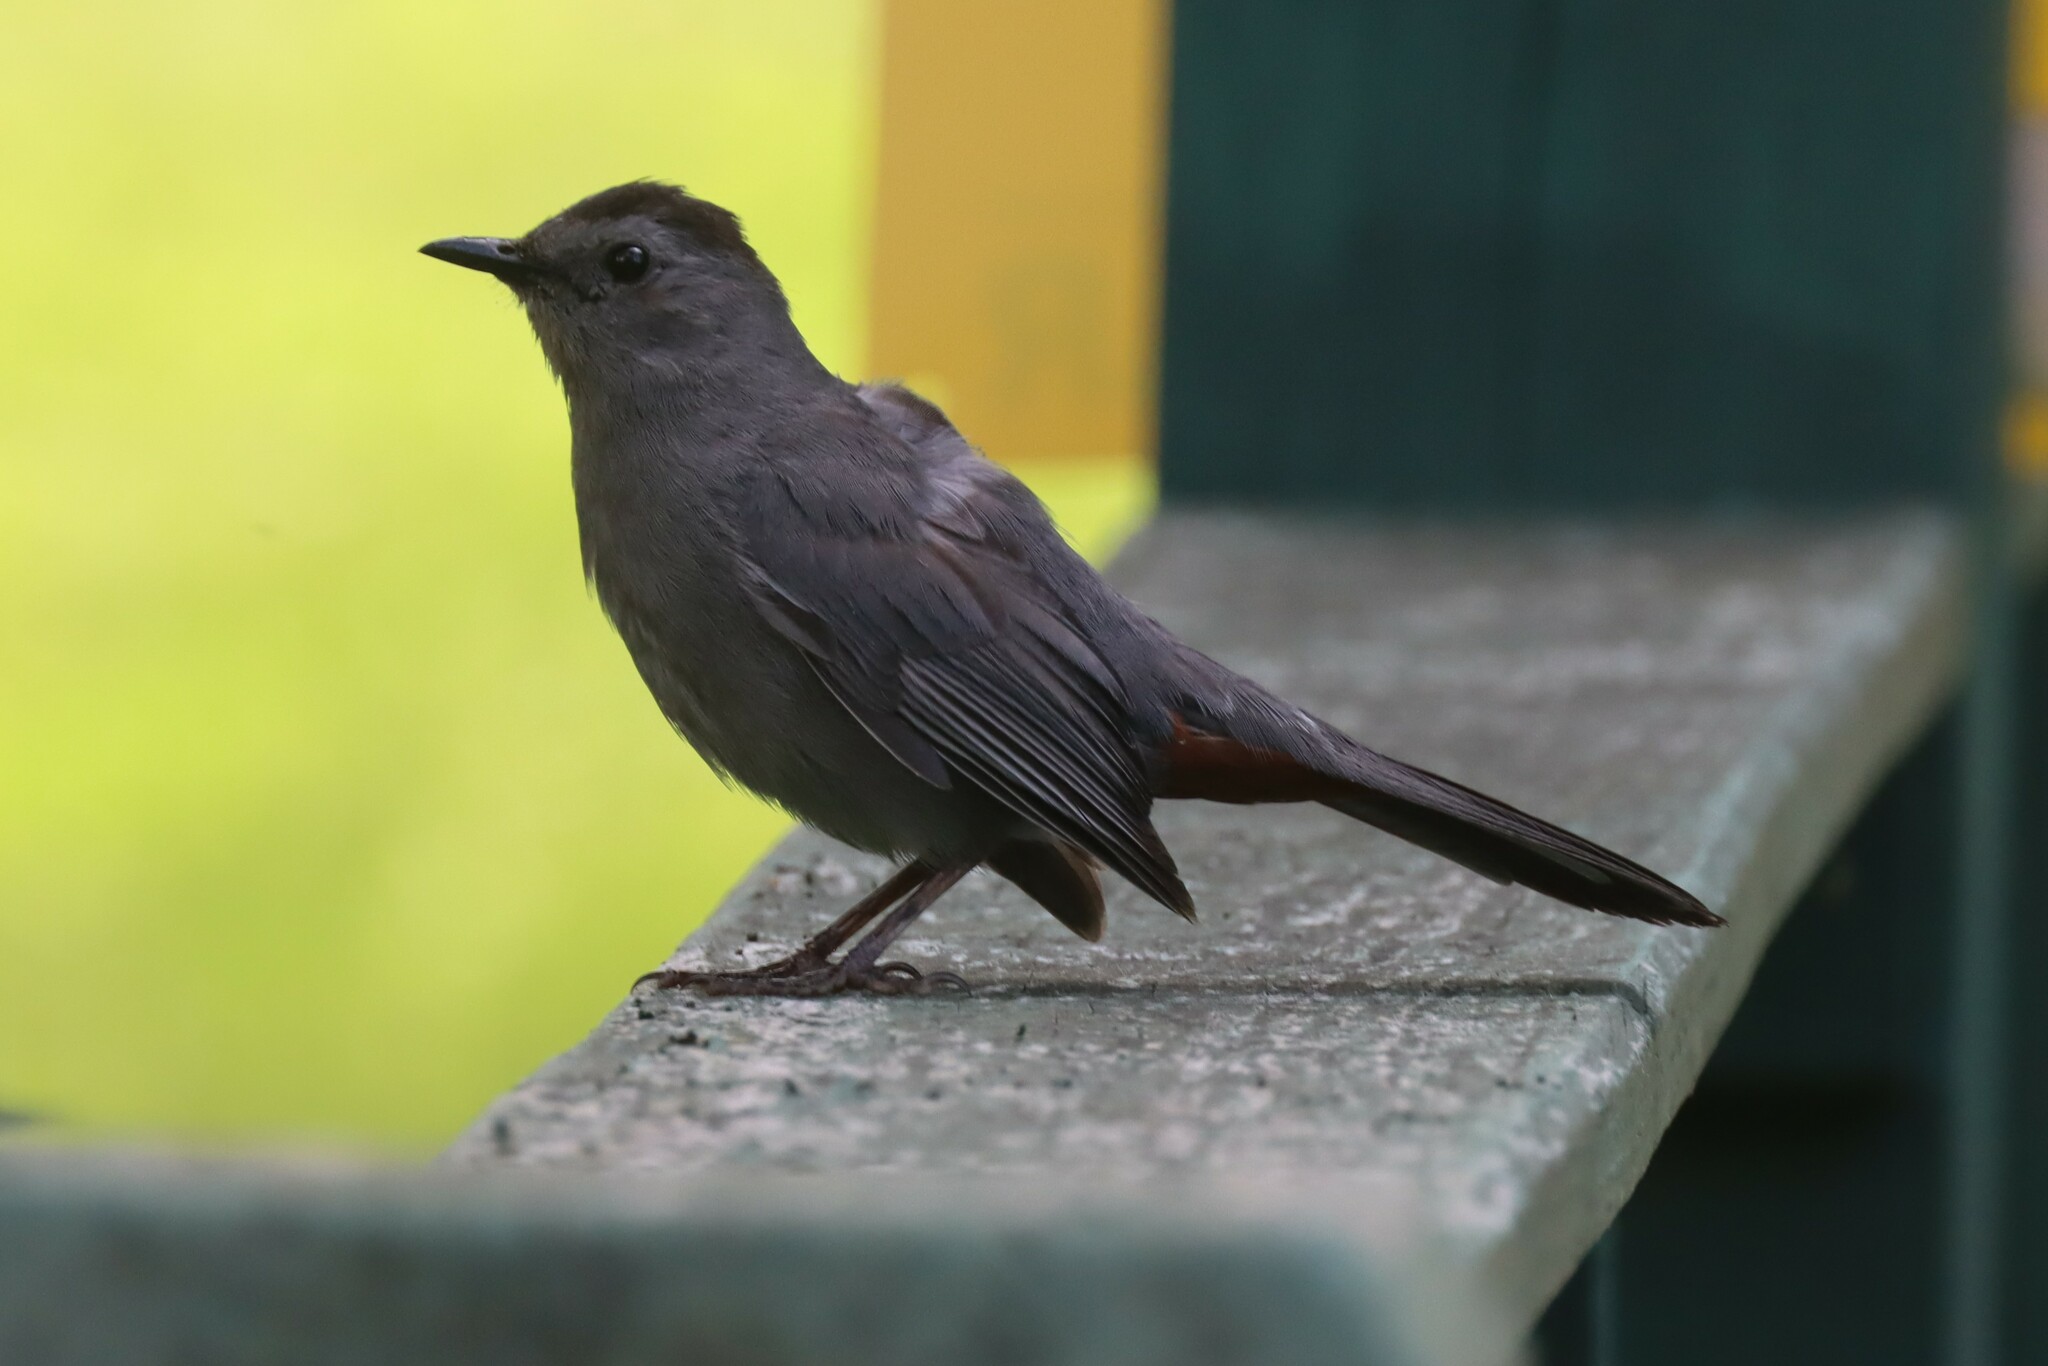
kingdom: Animalia
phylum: Chordata
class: Aves
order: Passeriformes
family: Mimidae
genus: Dumetella
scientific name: Dumetella carolinensis
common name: Gray catbird
